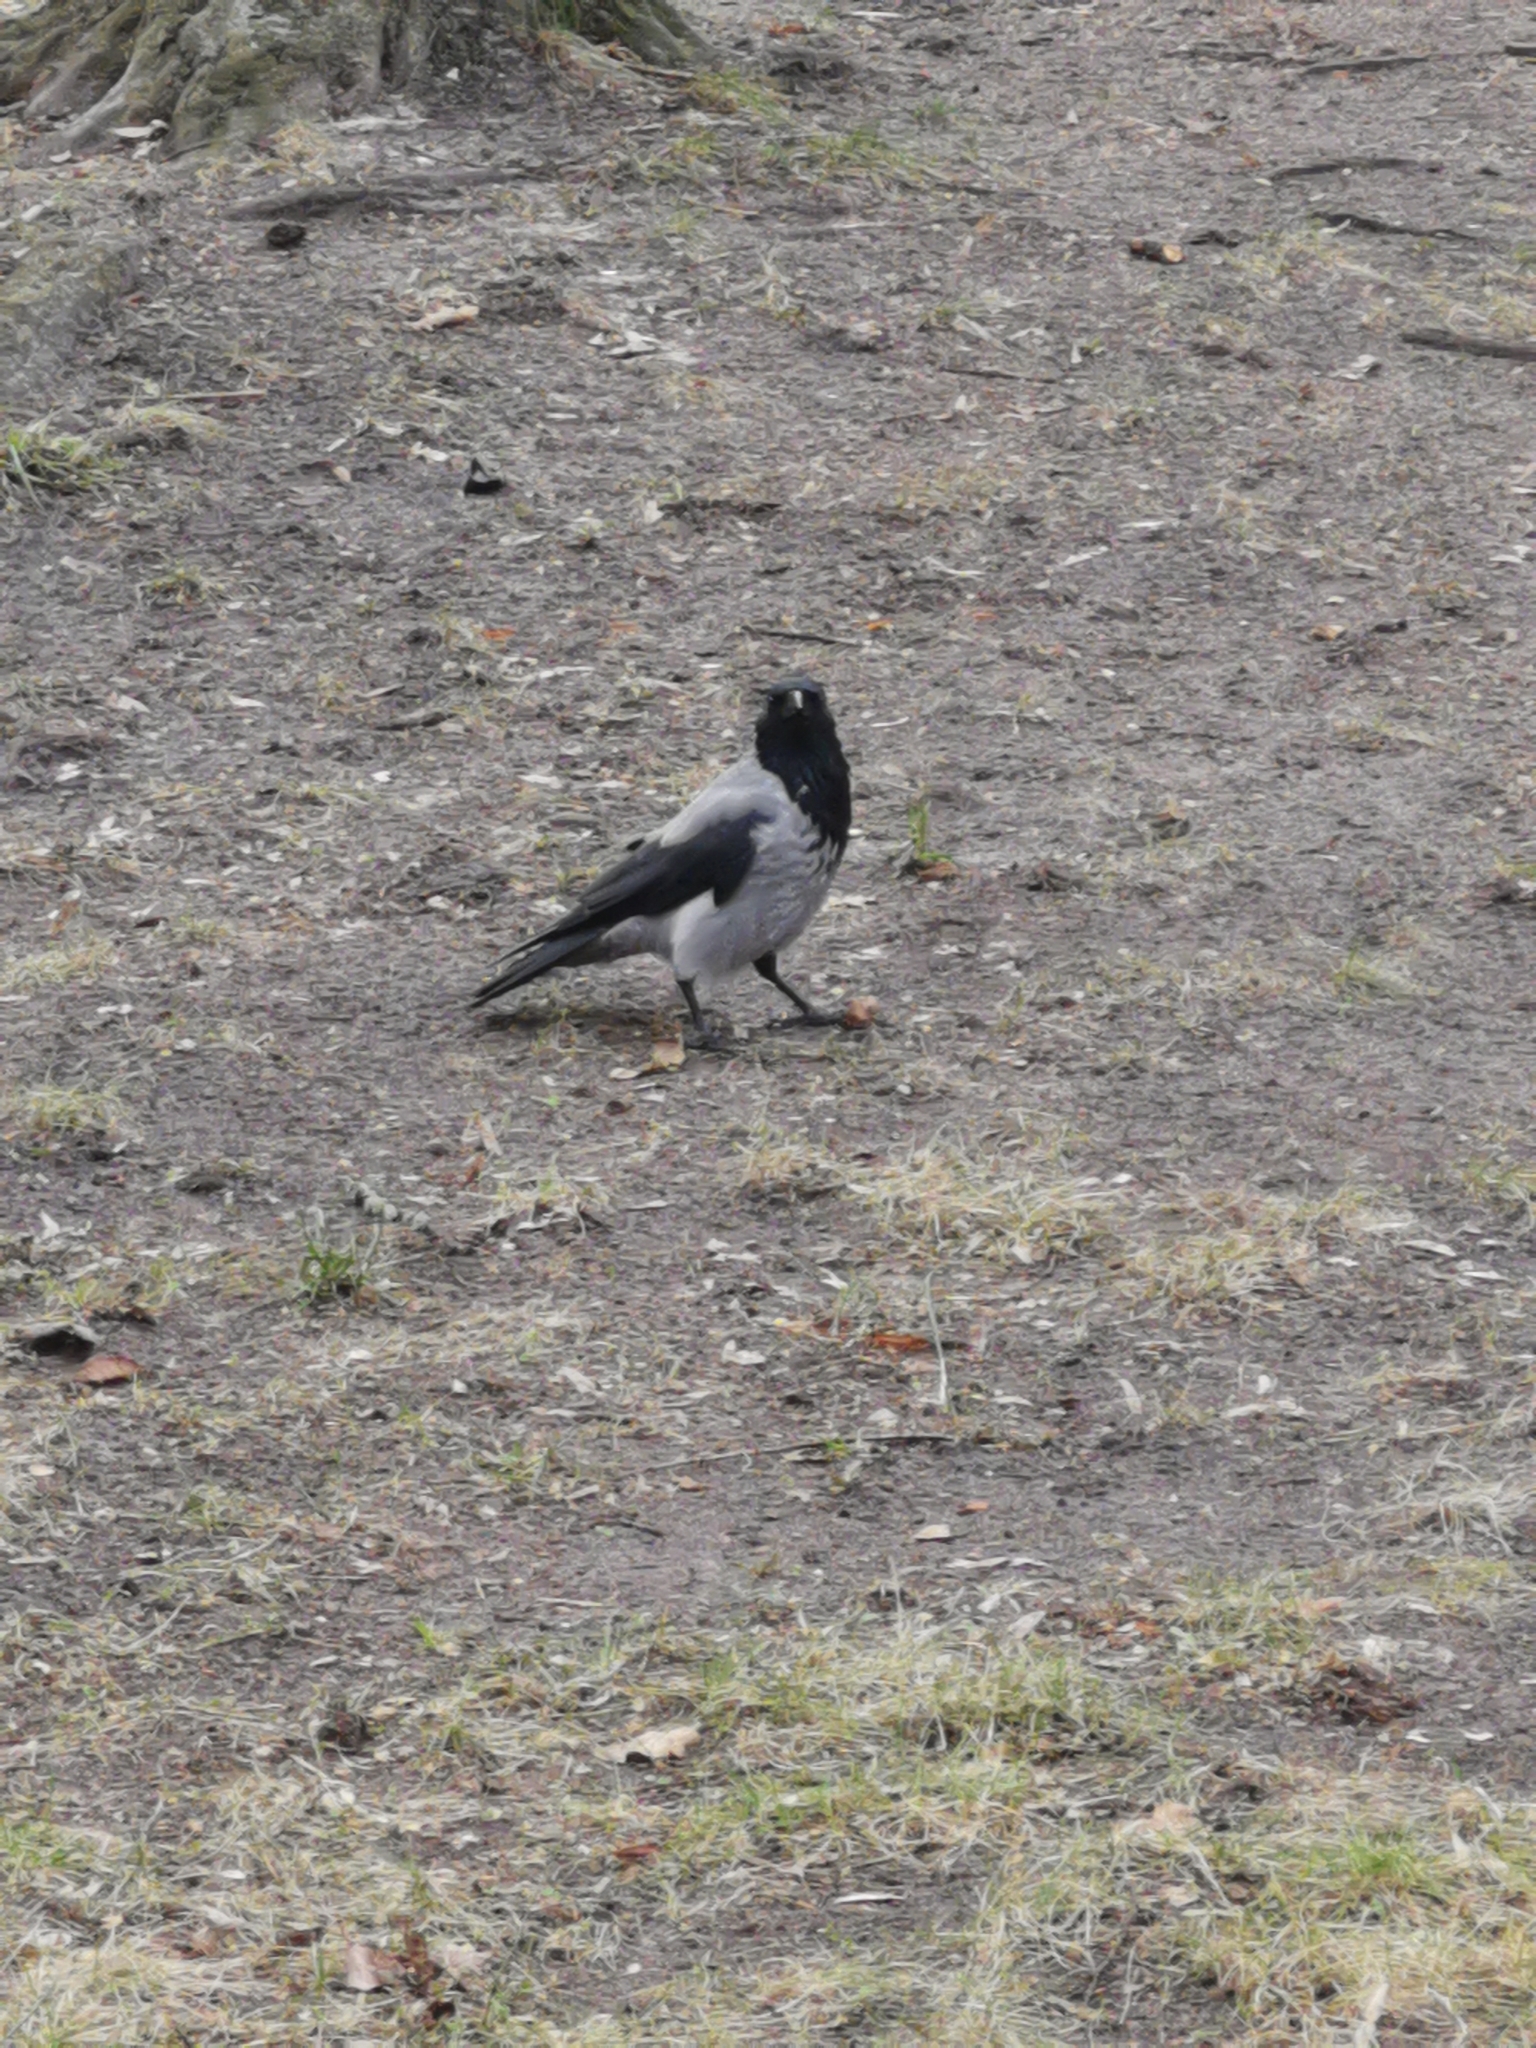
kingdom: Animalia
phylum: Chordata
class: Aves
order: Passeriformes
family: Corvidae
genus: Corvus
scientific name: Corvus cornix
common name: Hooded crow
